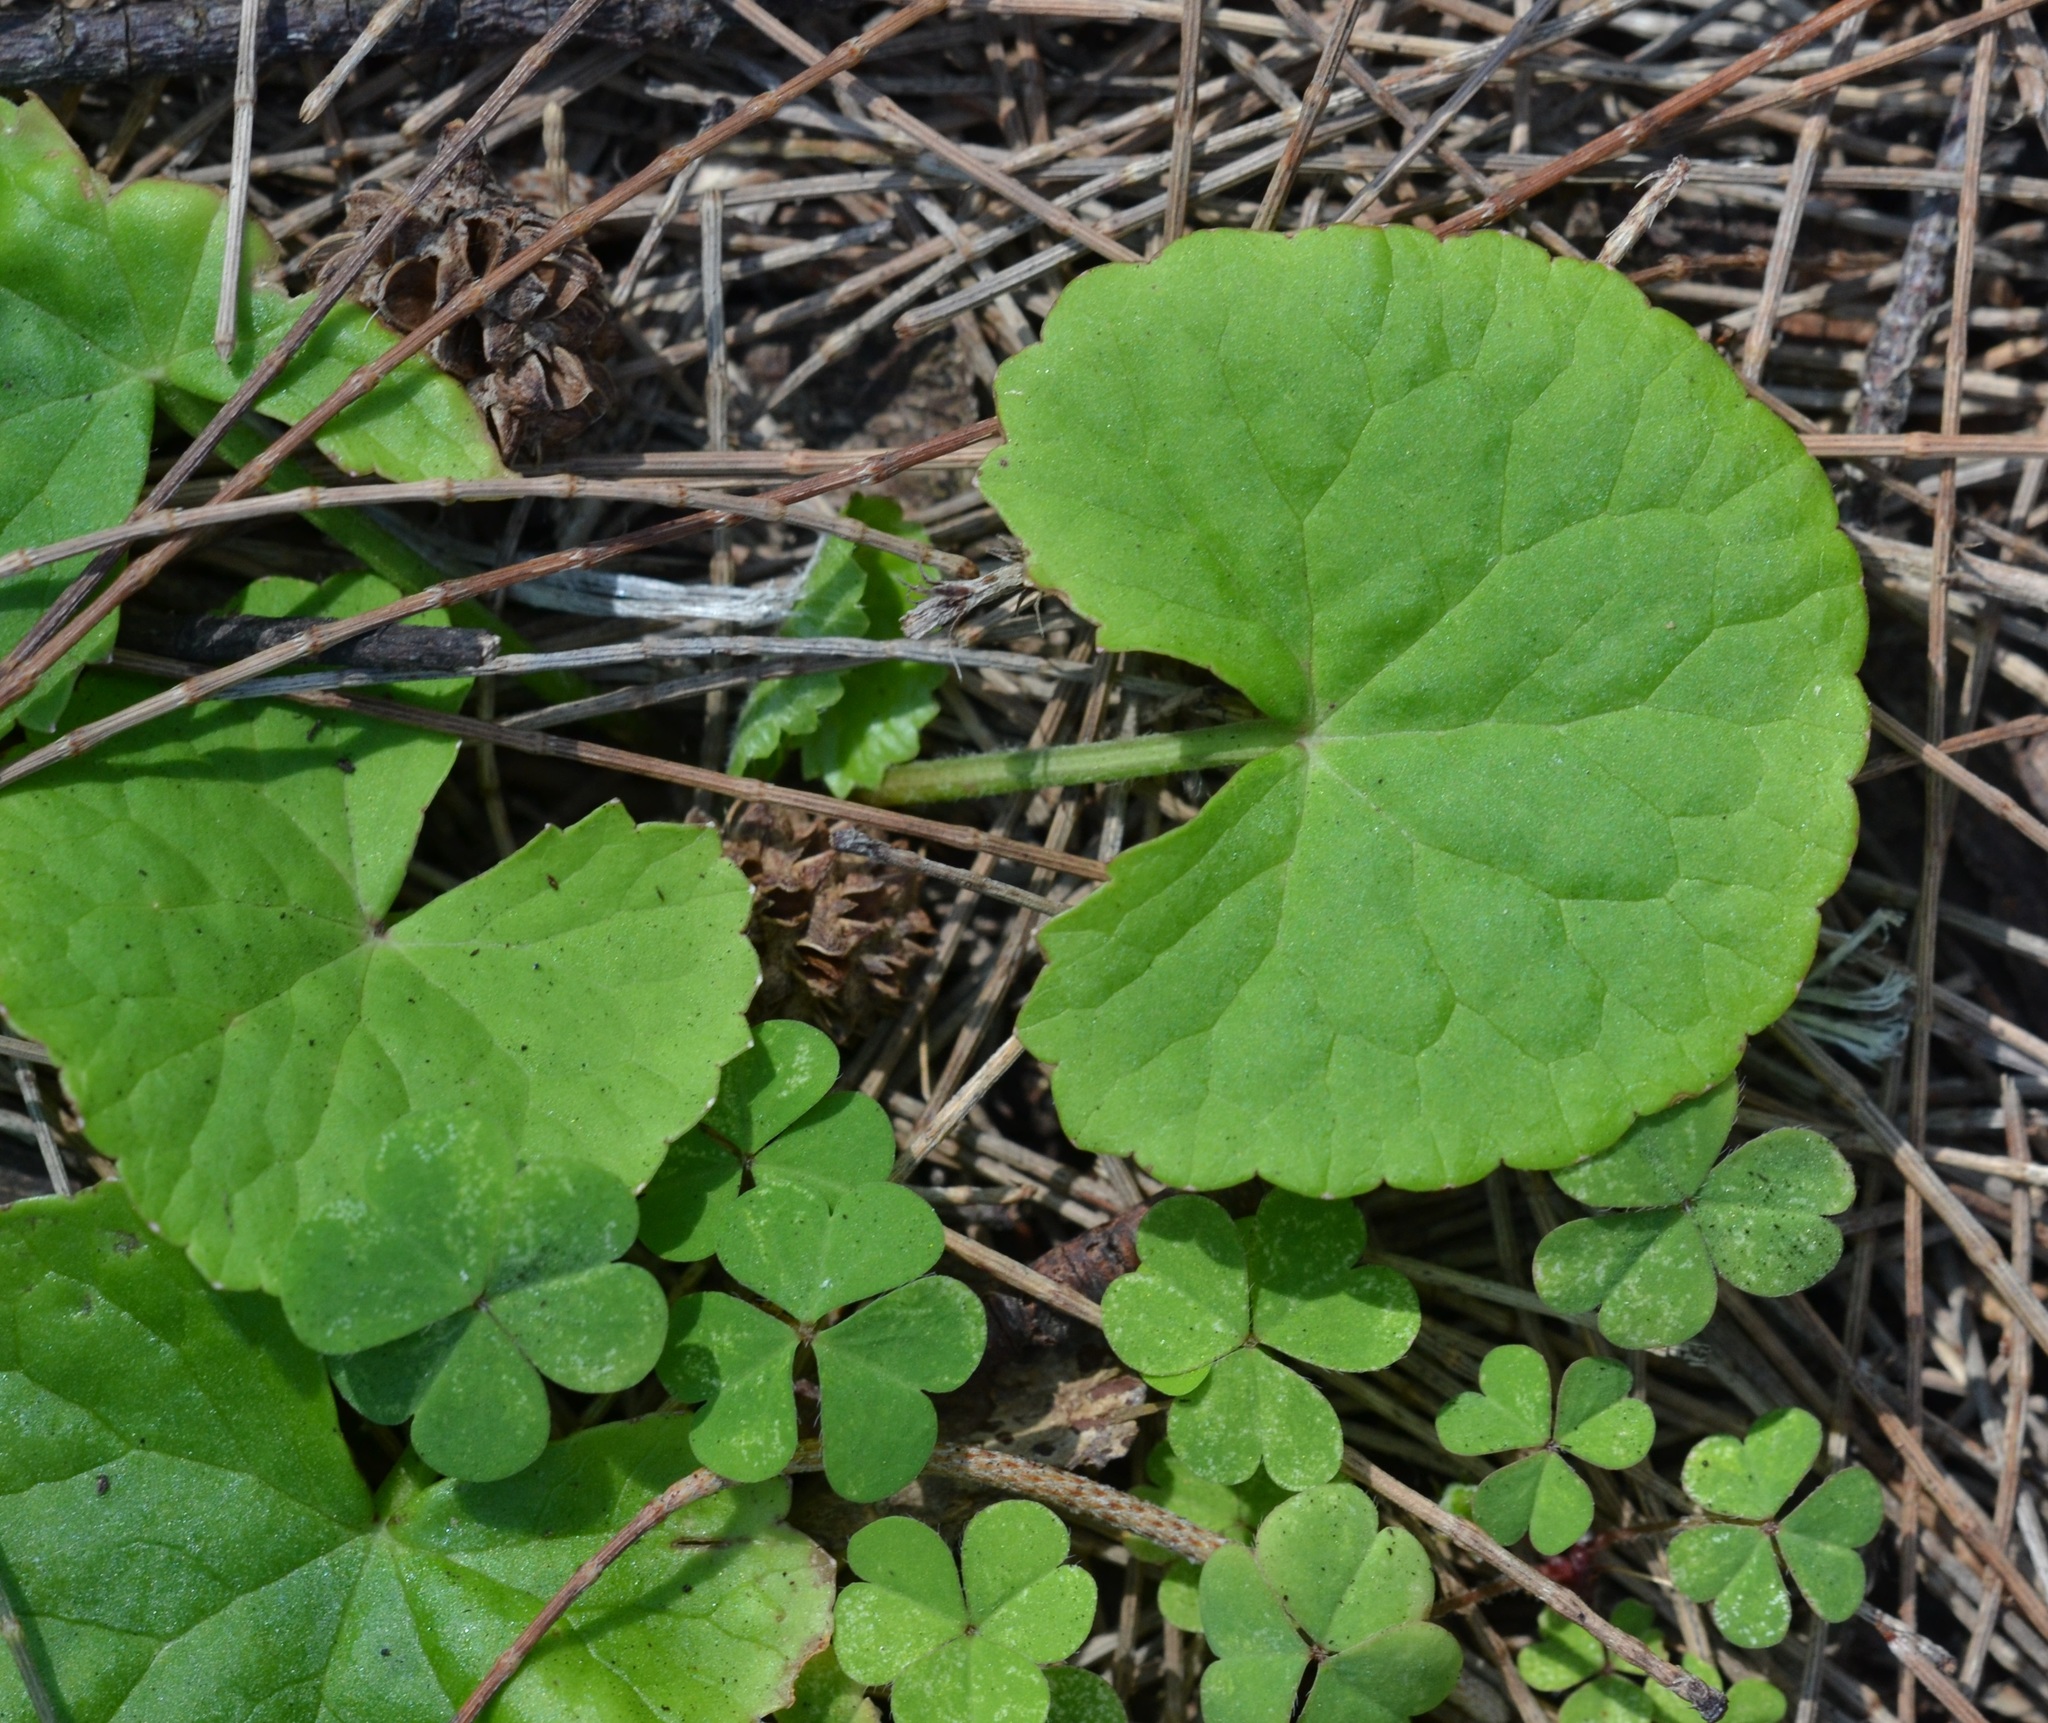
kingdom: Plantae
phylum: Tracheophyta
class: Magnoliopsida
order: Apiales
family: Apiaceae
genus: Centella
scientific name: Centella asiatica
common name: Spadeleaf
